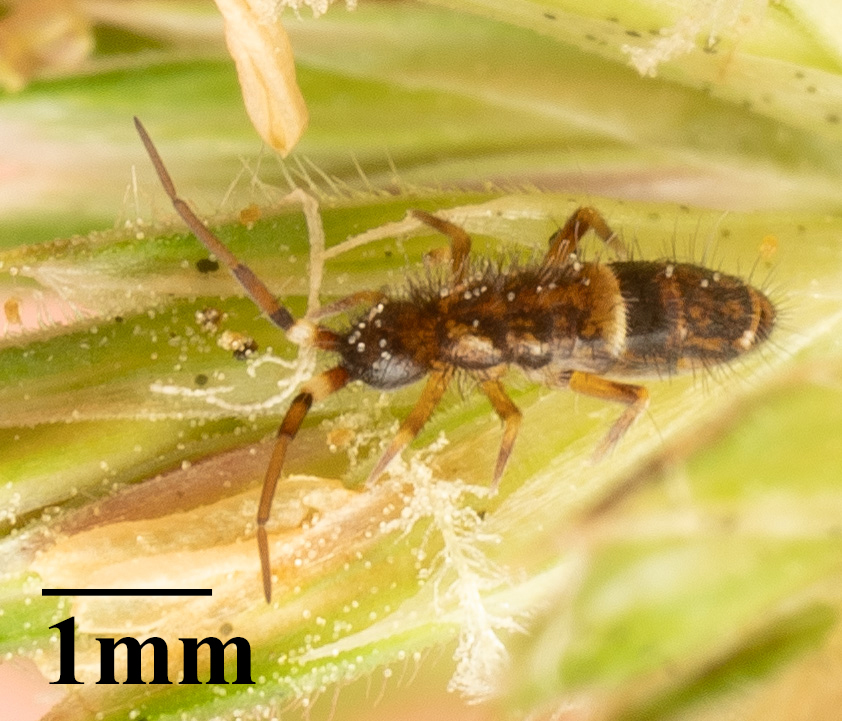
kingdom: Animalia
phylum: Arthropoda
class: Collembola
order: Entomobryomorpha
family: Orchesellidae
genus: Orchesella
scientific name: Orchesella cincta
